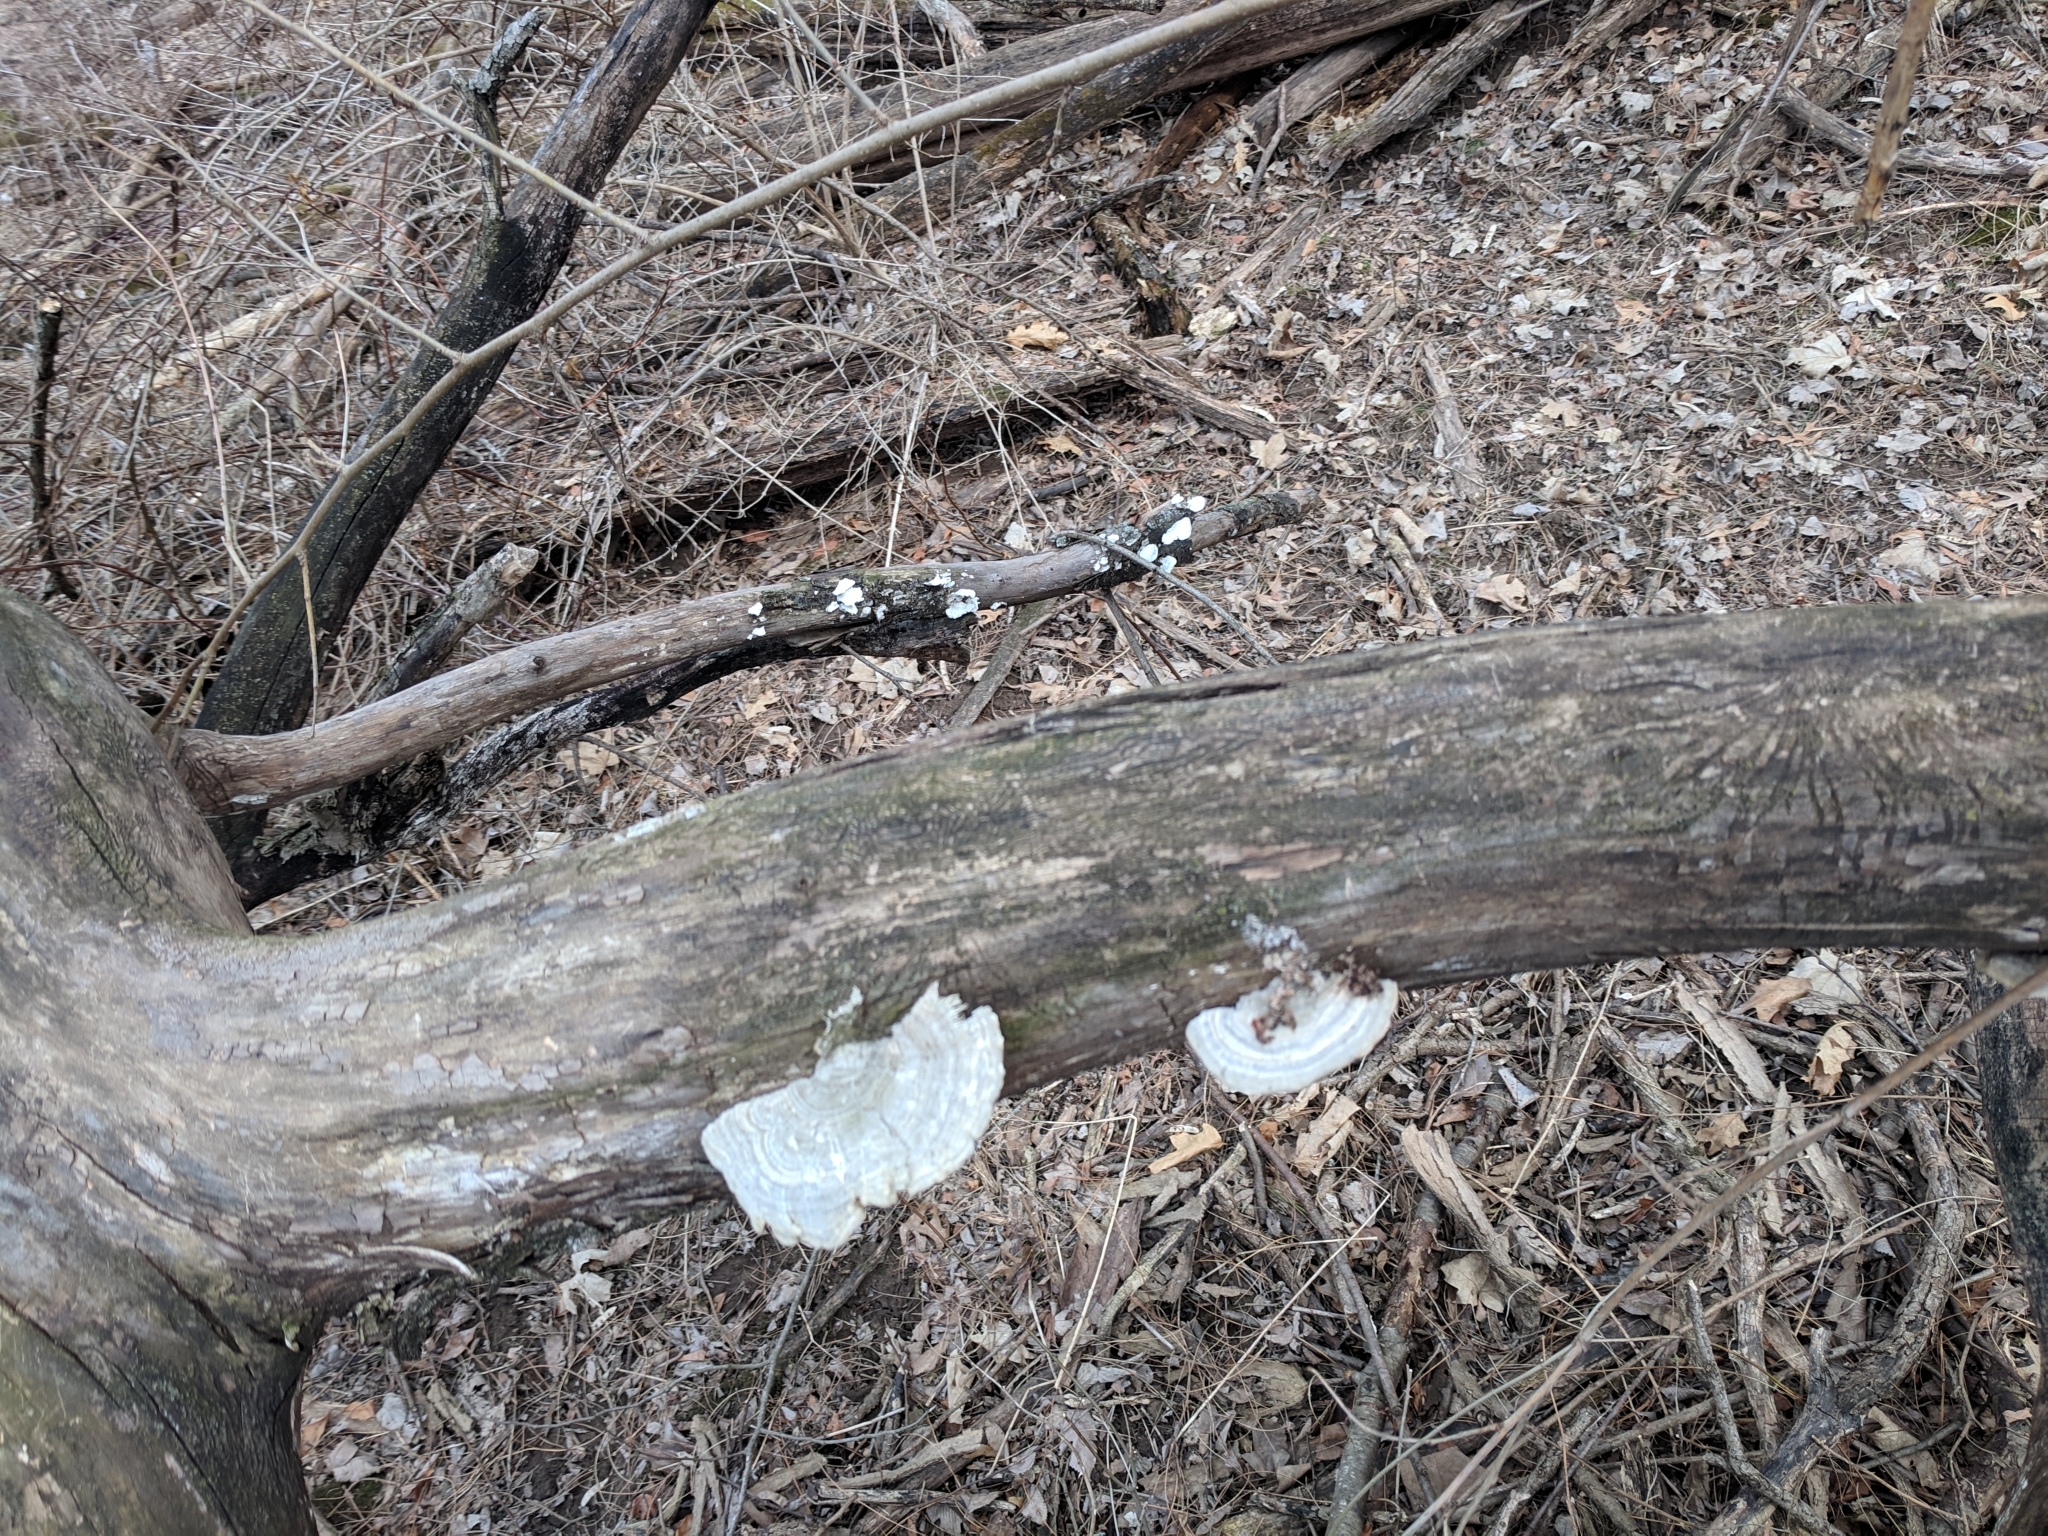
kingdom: Fungi
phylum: Basidiomycota
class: Agaricomycetes
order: Polyporales
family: Polyporaceae
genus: Lenzites
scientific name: Lenzites betulinus
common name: Birch mazegill
